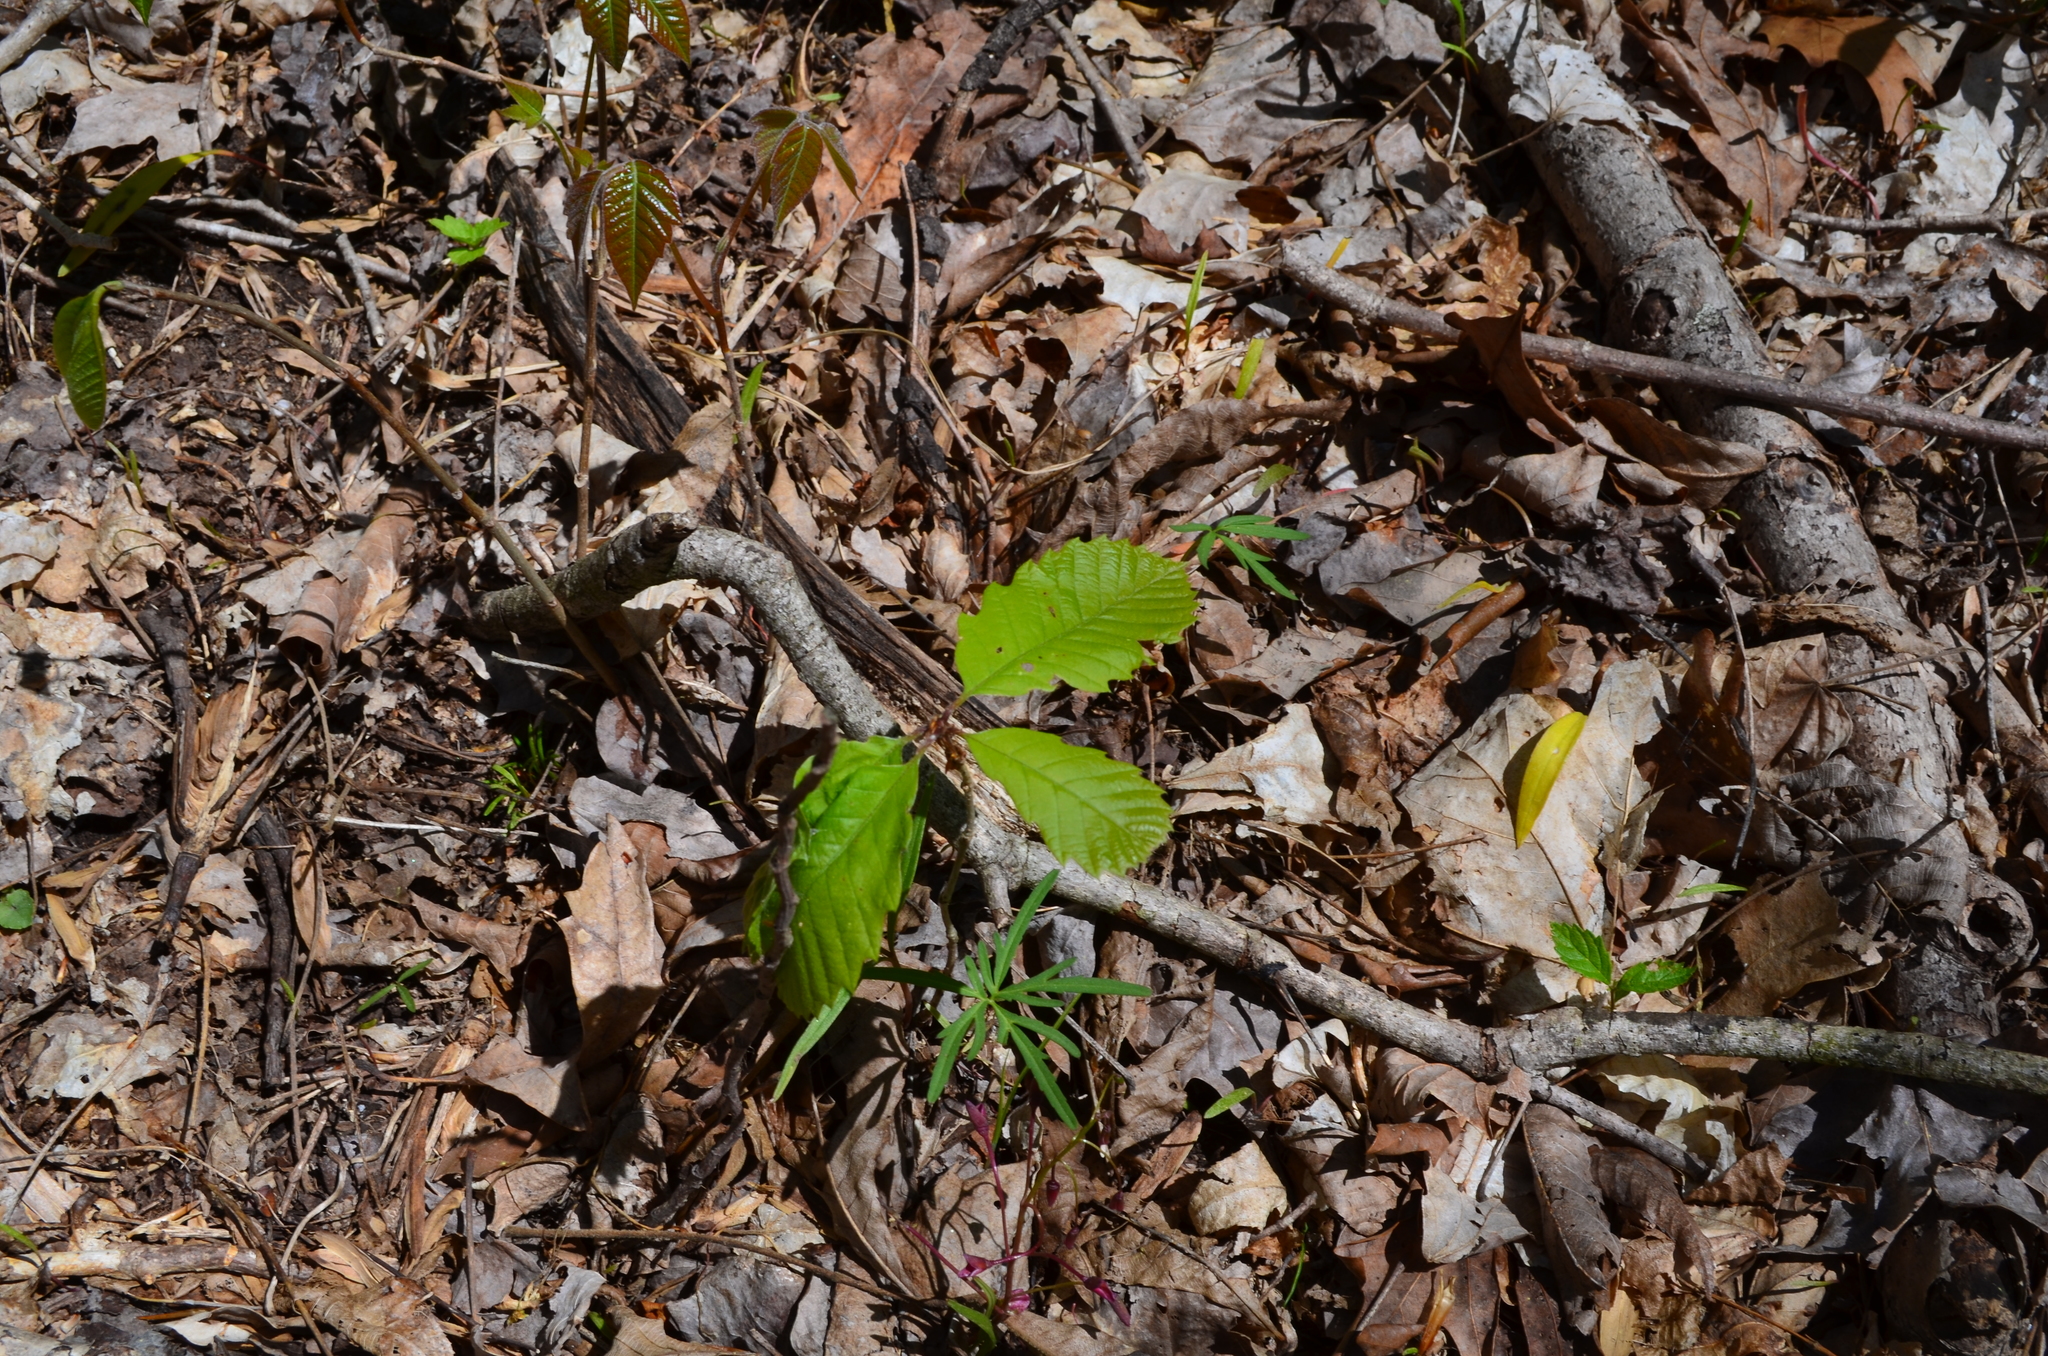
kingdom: Plantae
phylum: Tracheophyta
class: Magnoliopsida
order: Fagales
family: Fagaceae
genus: Quercus
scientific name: Quercus muehlenbergii
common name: Chinkapin oak
